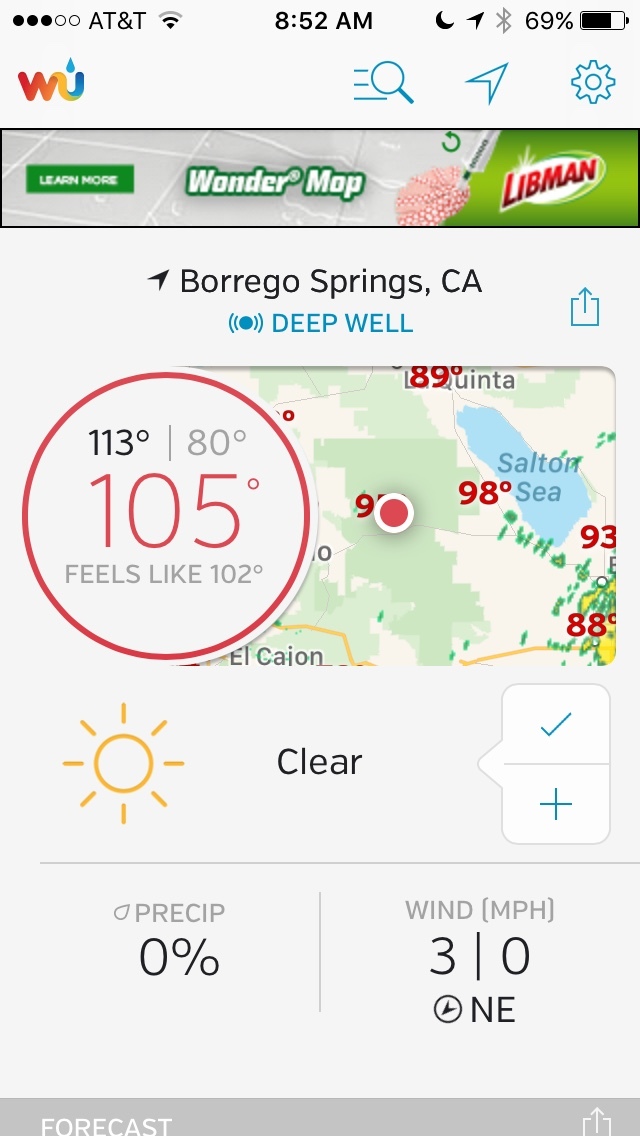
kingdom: Animalia
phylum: Chordata
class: Aves
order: Pelecaniformes
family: Threskiornithidae
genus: Plegadis
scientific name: Plegadis chihi
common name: White-faced ibis
